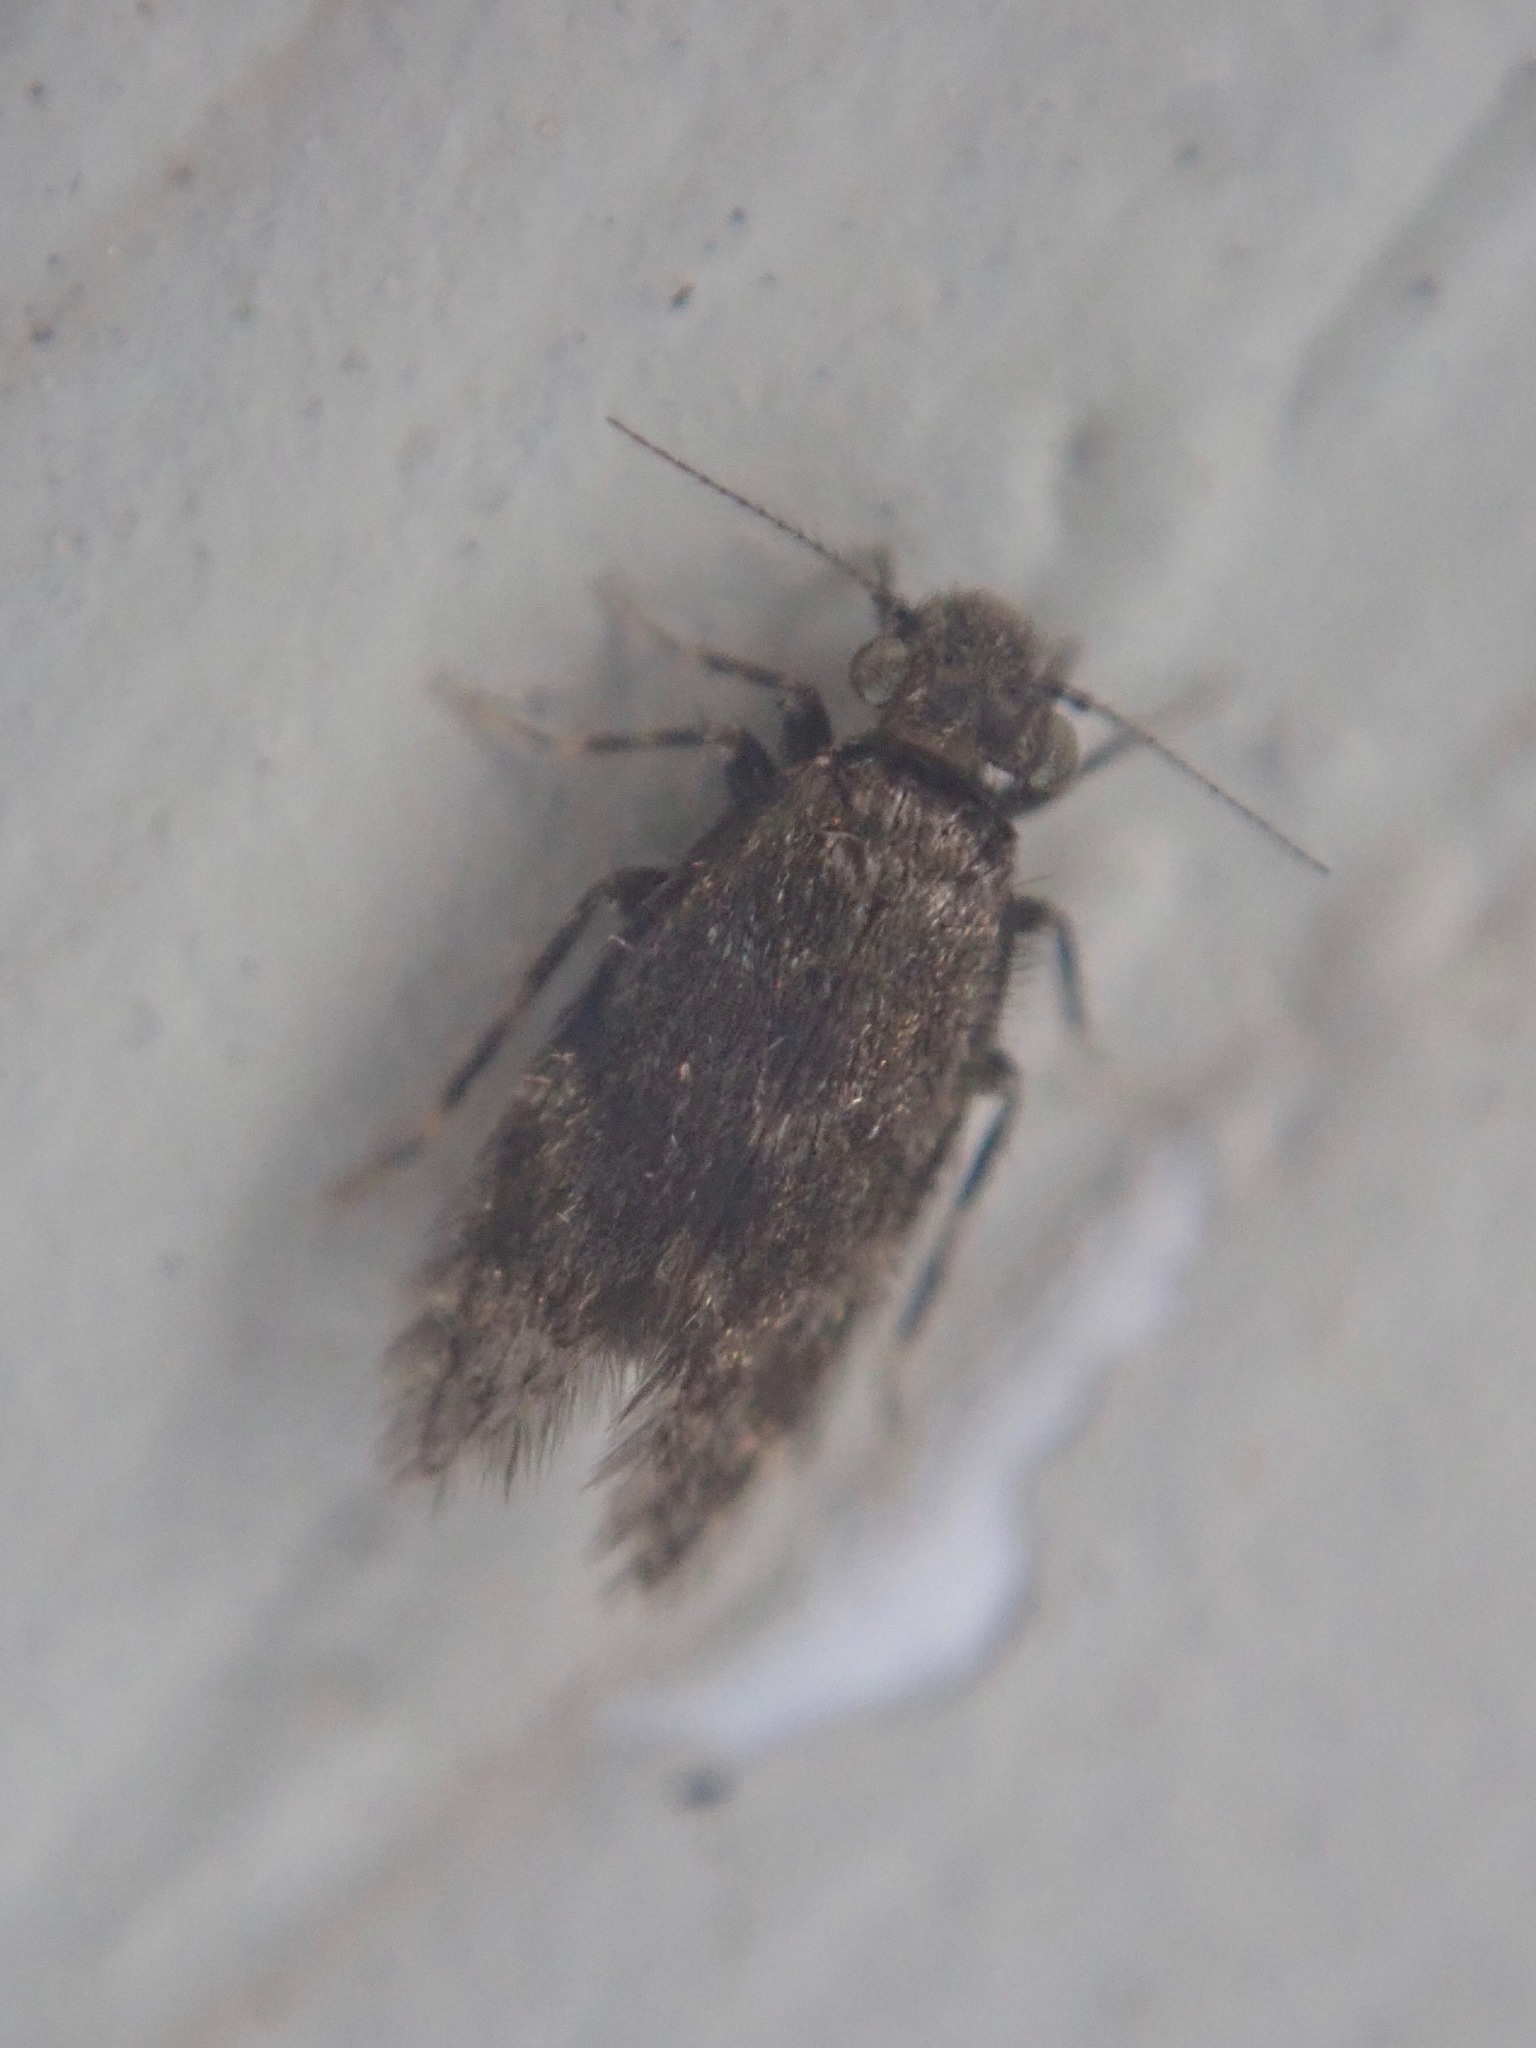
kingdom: Animalia
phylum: Arthropoda
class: Insecta
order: Psocodea
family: Lepidopsocidae
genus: Echmepteryx
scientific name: Echmepteryx hageni
